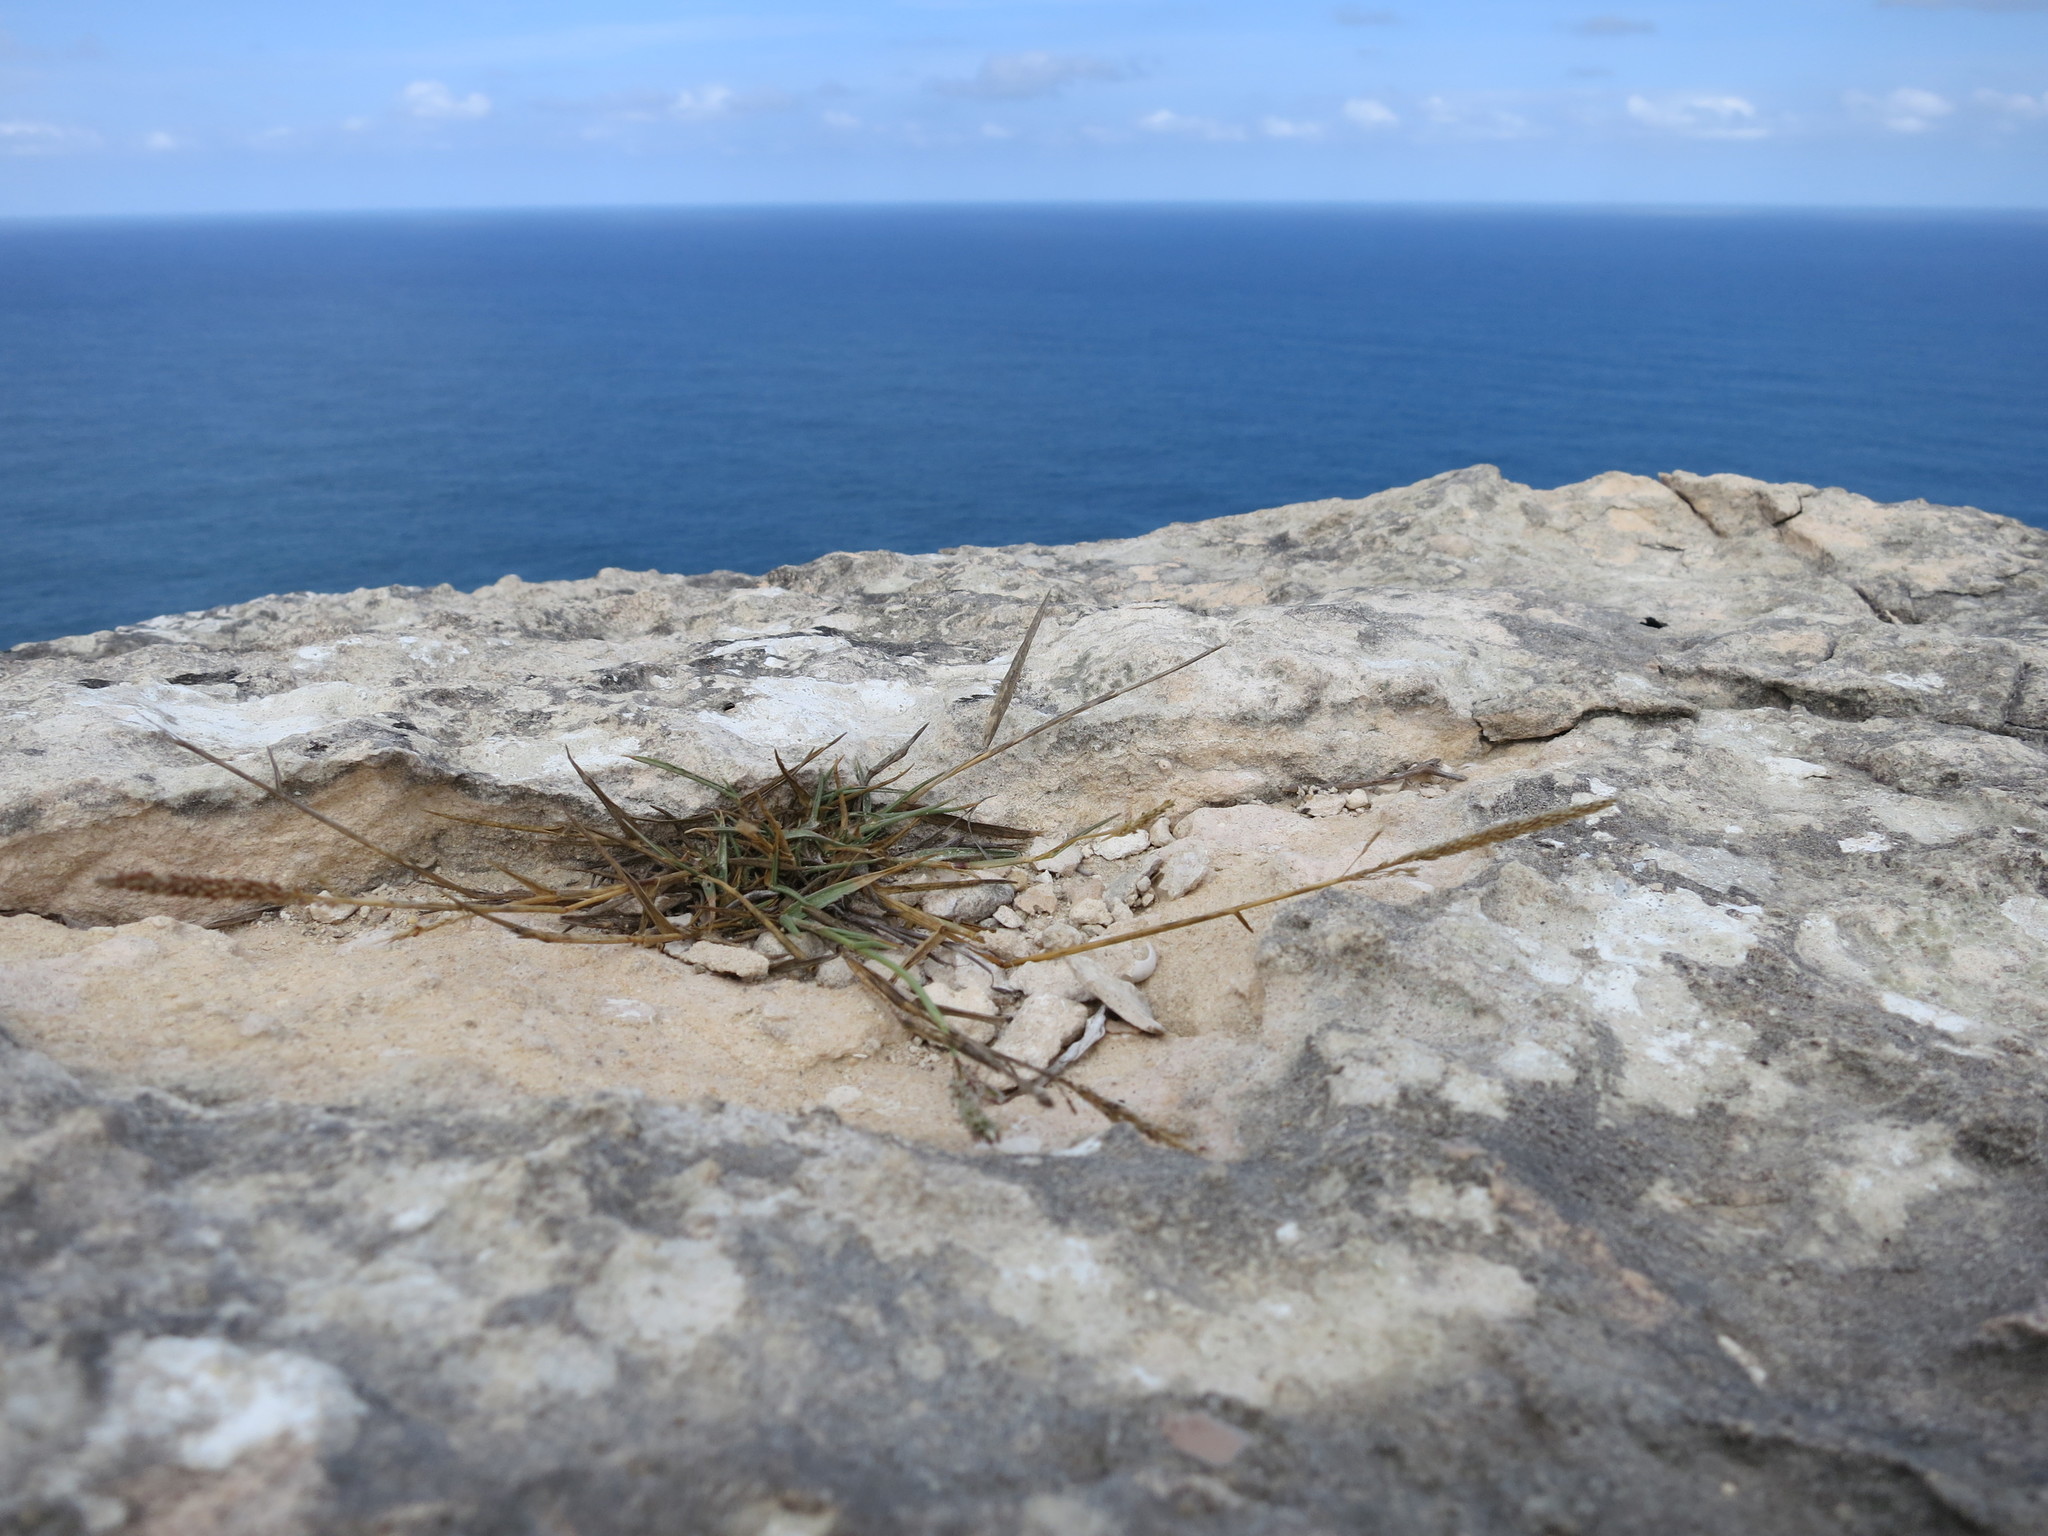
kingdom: Plantae
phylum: Tracheophyta
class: Liliopsida
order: Poales
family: Poaceae
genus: Sporobolus
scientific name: Sporobolus perrieri
